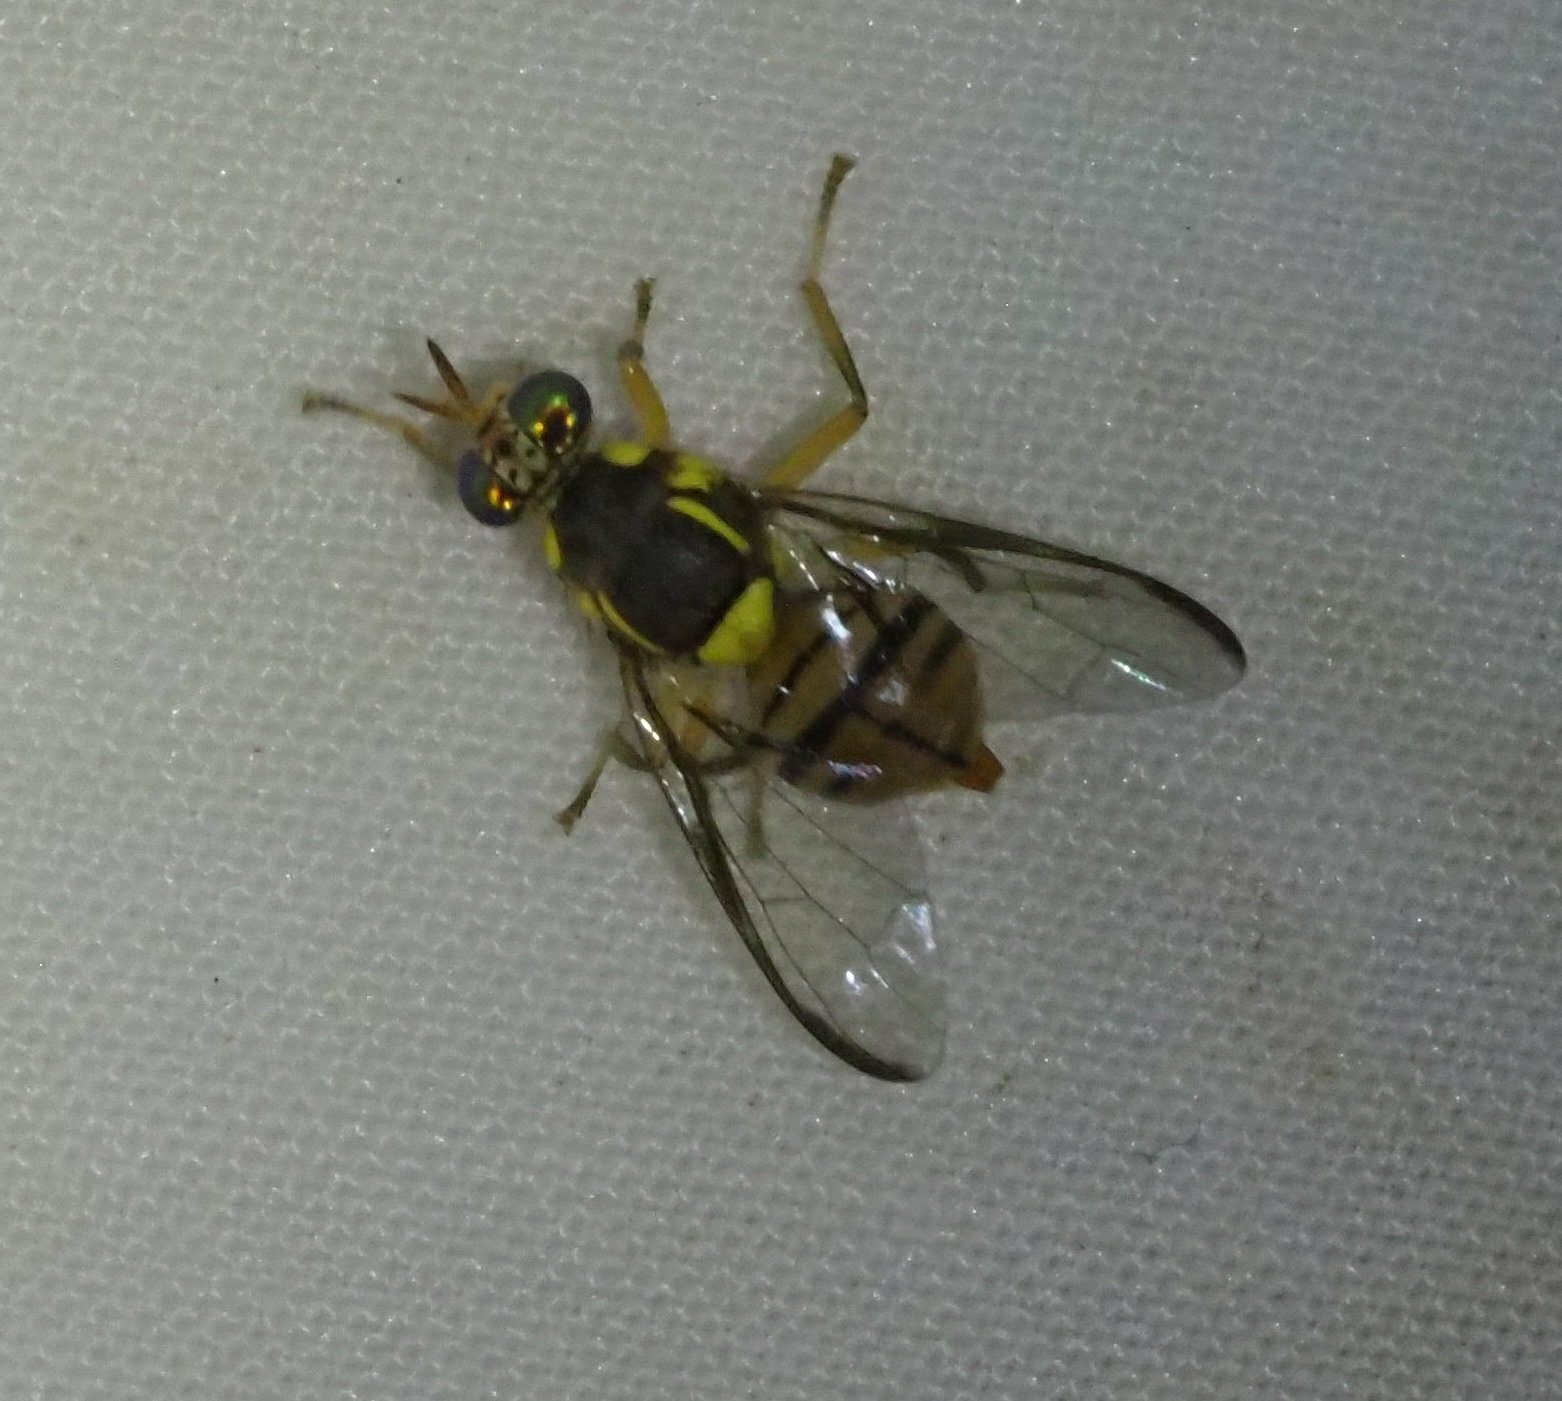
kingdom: Animalia
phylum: Arthropoda
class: Insecta
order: Diptera
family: Tephritidae
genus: Bactrocera
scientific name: Bactrocera dorsalis
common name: Oriental fruit fly
